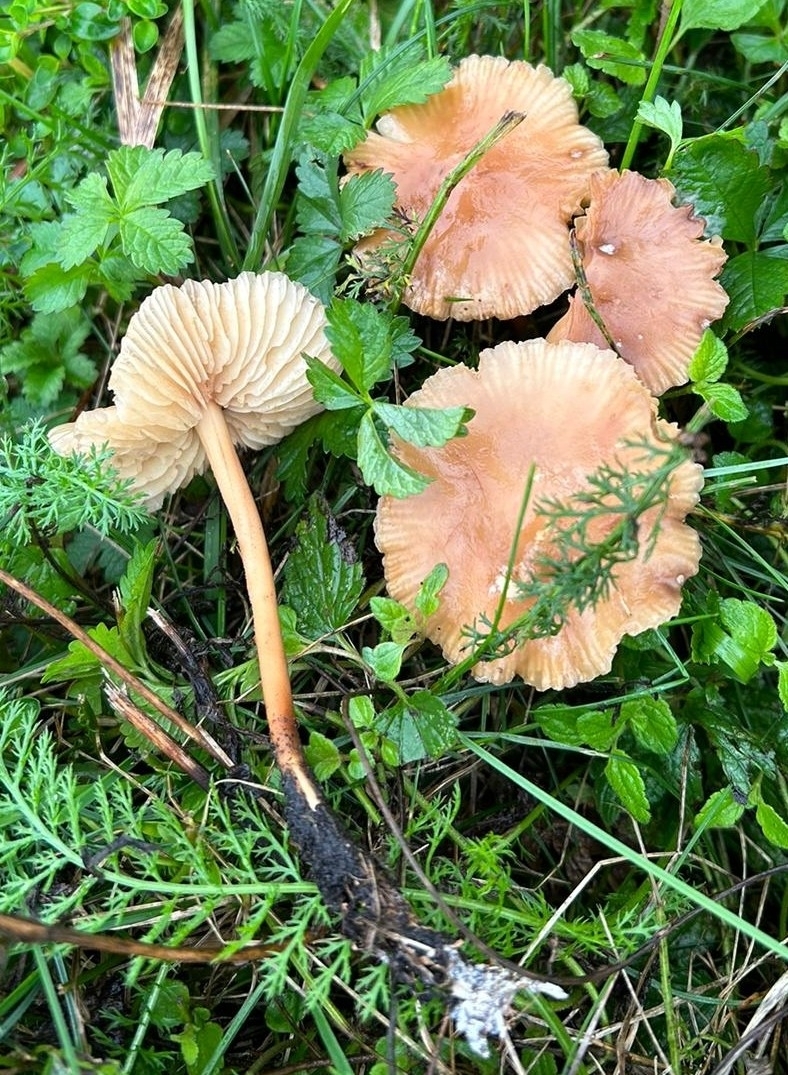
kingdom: Fungi
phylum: Basidiomycota
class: Agaricomycetes
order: Agaricales
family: Marasmiaceae
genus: Marasmius
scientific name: Marasmius oreades
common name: Fairy ring champignon
